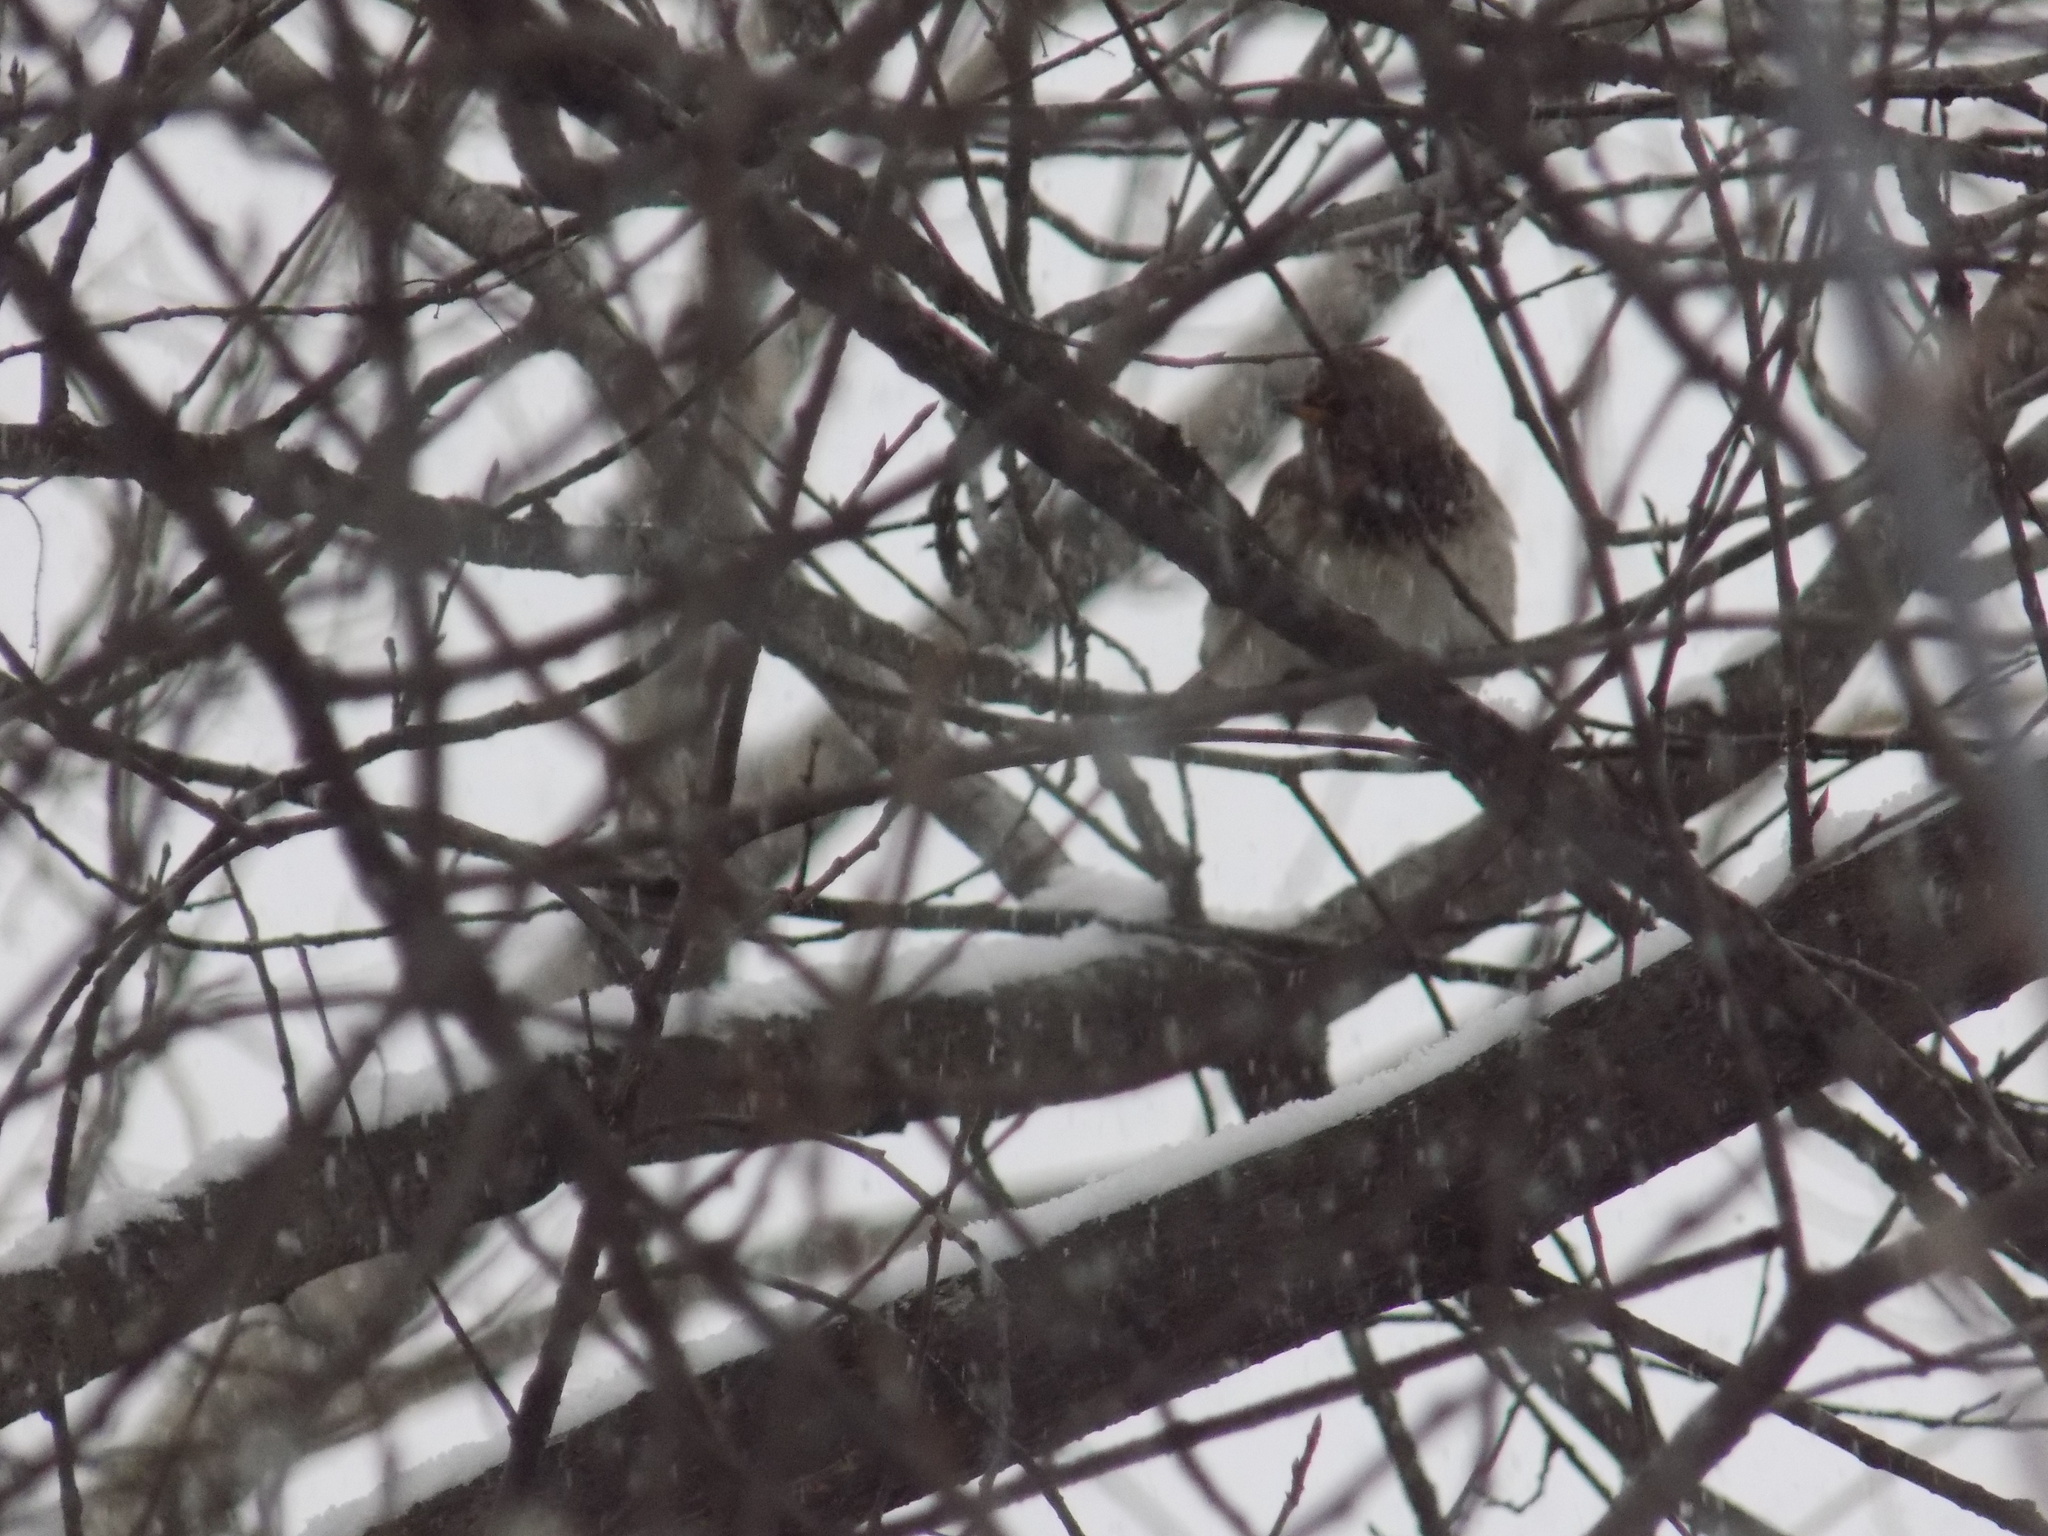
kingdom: Animalia
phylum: Chordata
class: Aves
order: Passeriformes
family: Turdidae
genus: Turdus
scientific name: Turdus atrogularis
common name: Black-throated thrush
